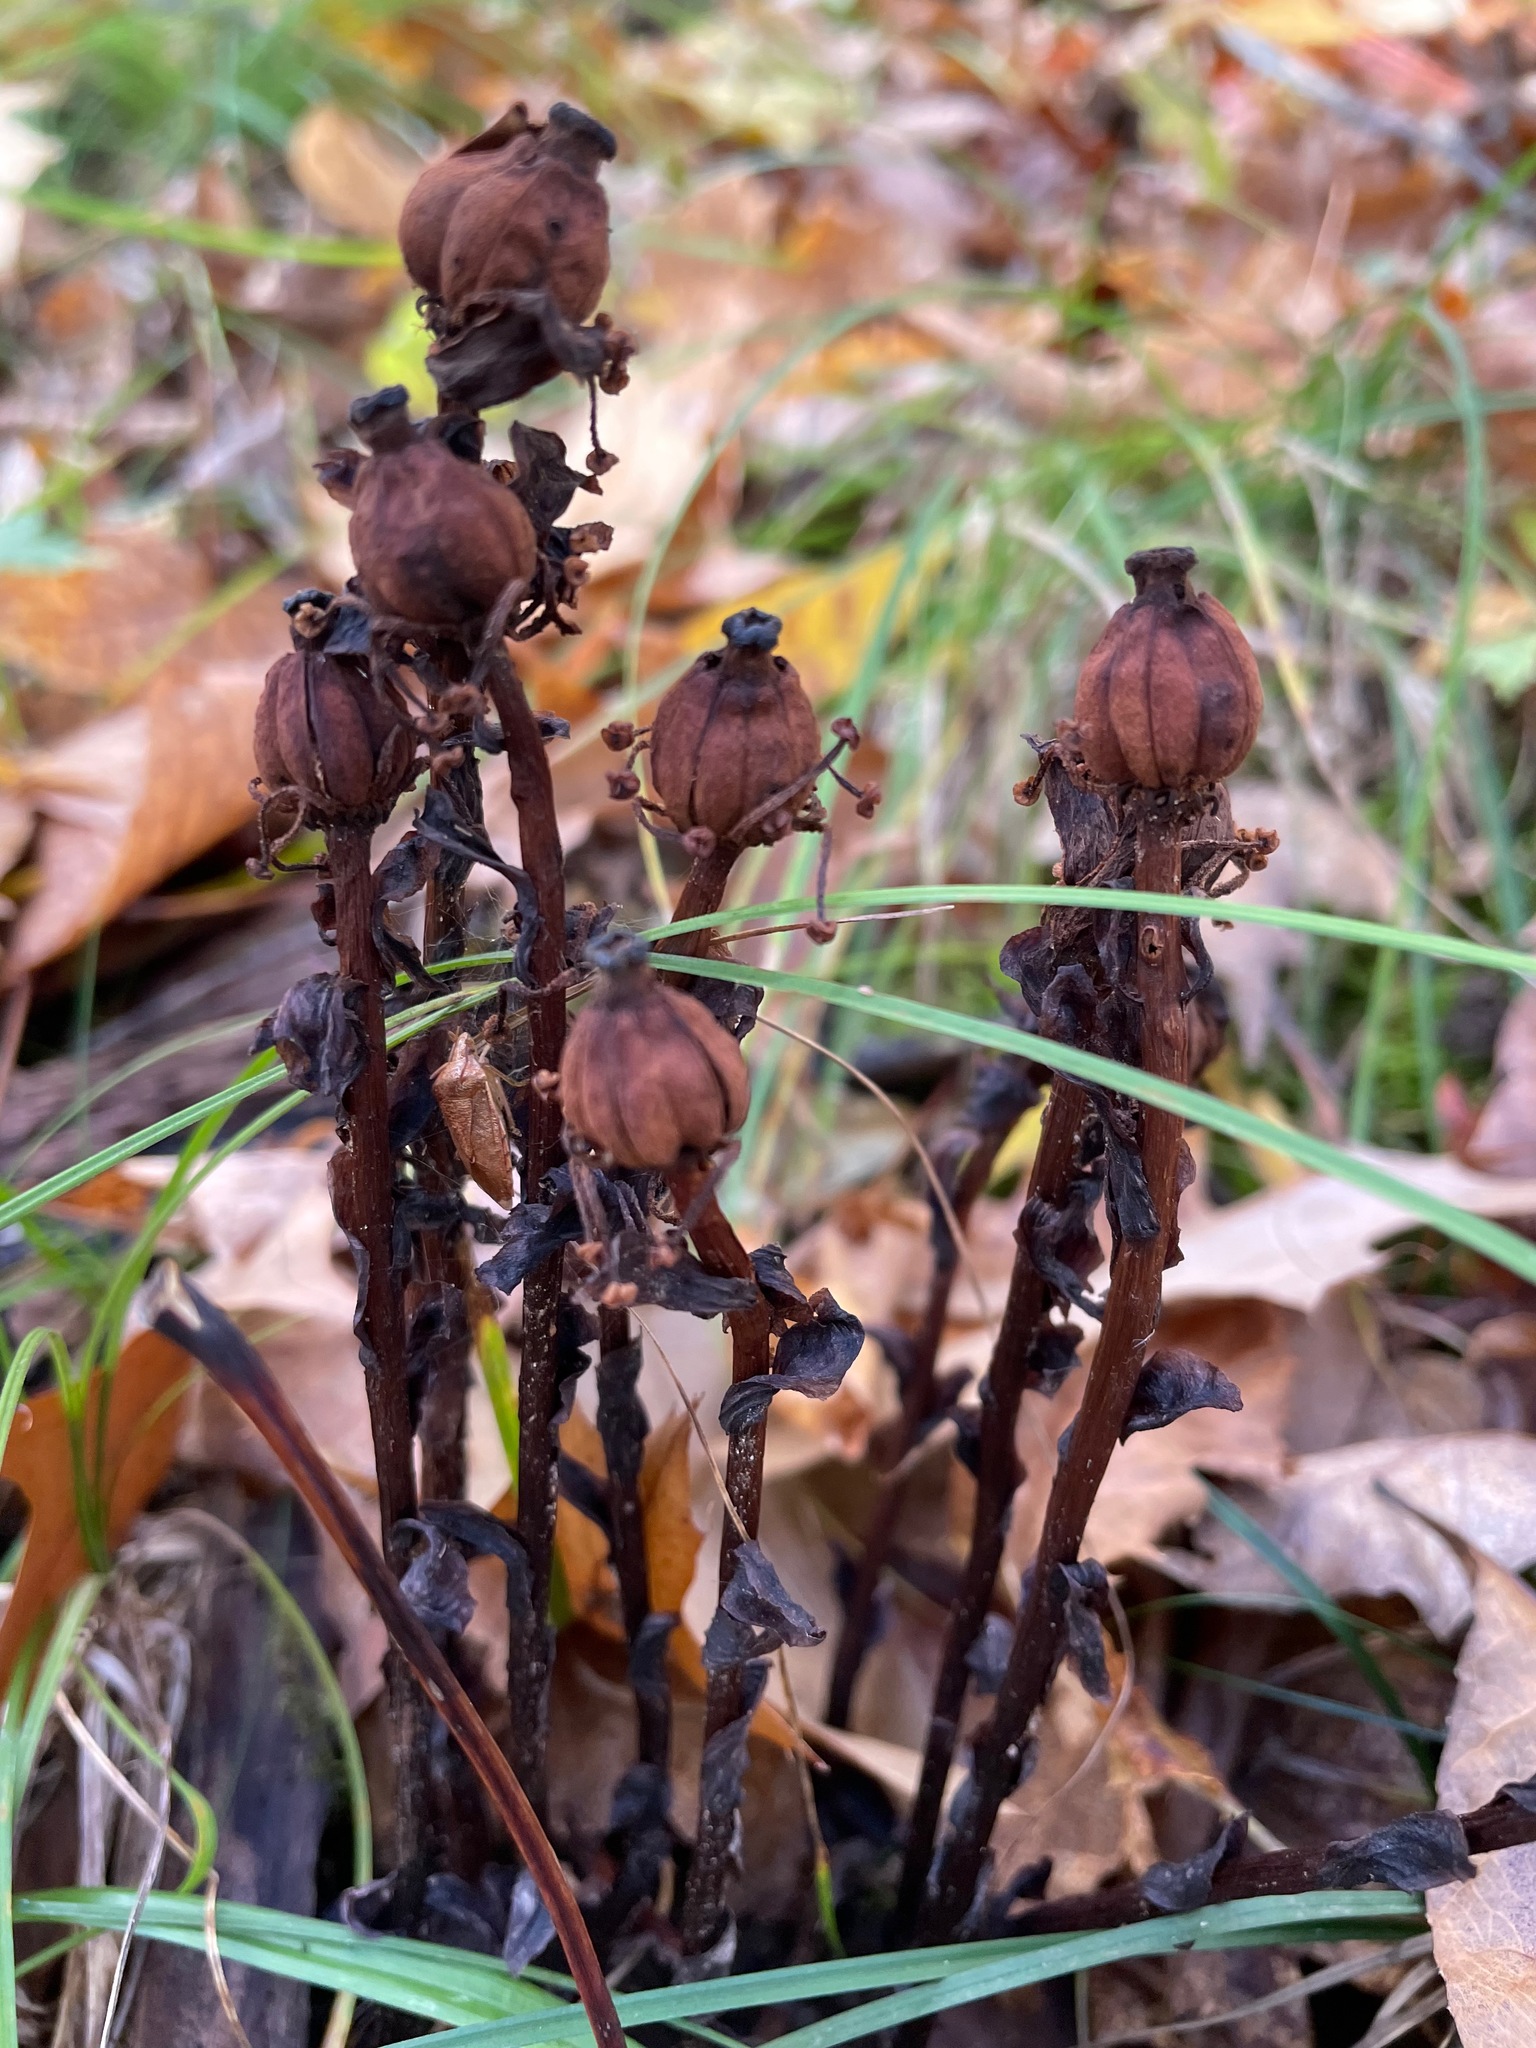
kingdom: Plantae
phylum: Tracheophyta
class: Magnoliopsida
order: Ericales
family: Ericaceae
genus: Monotropa
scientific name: Monotropa uniflora
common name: Convulsion root
